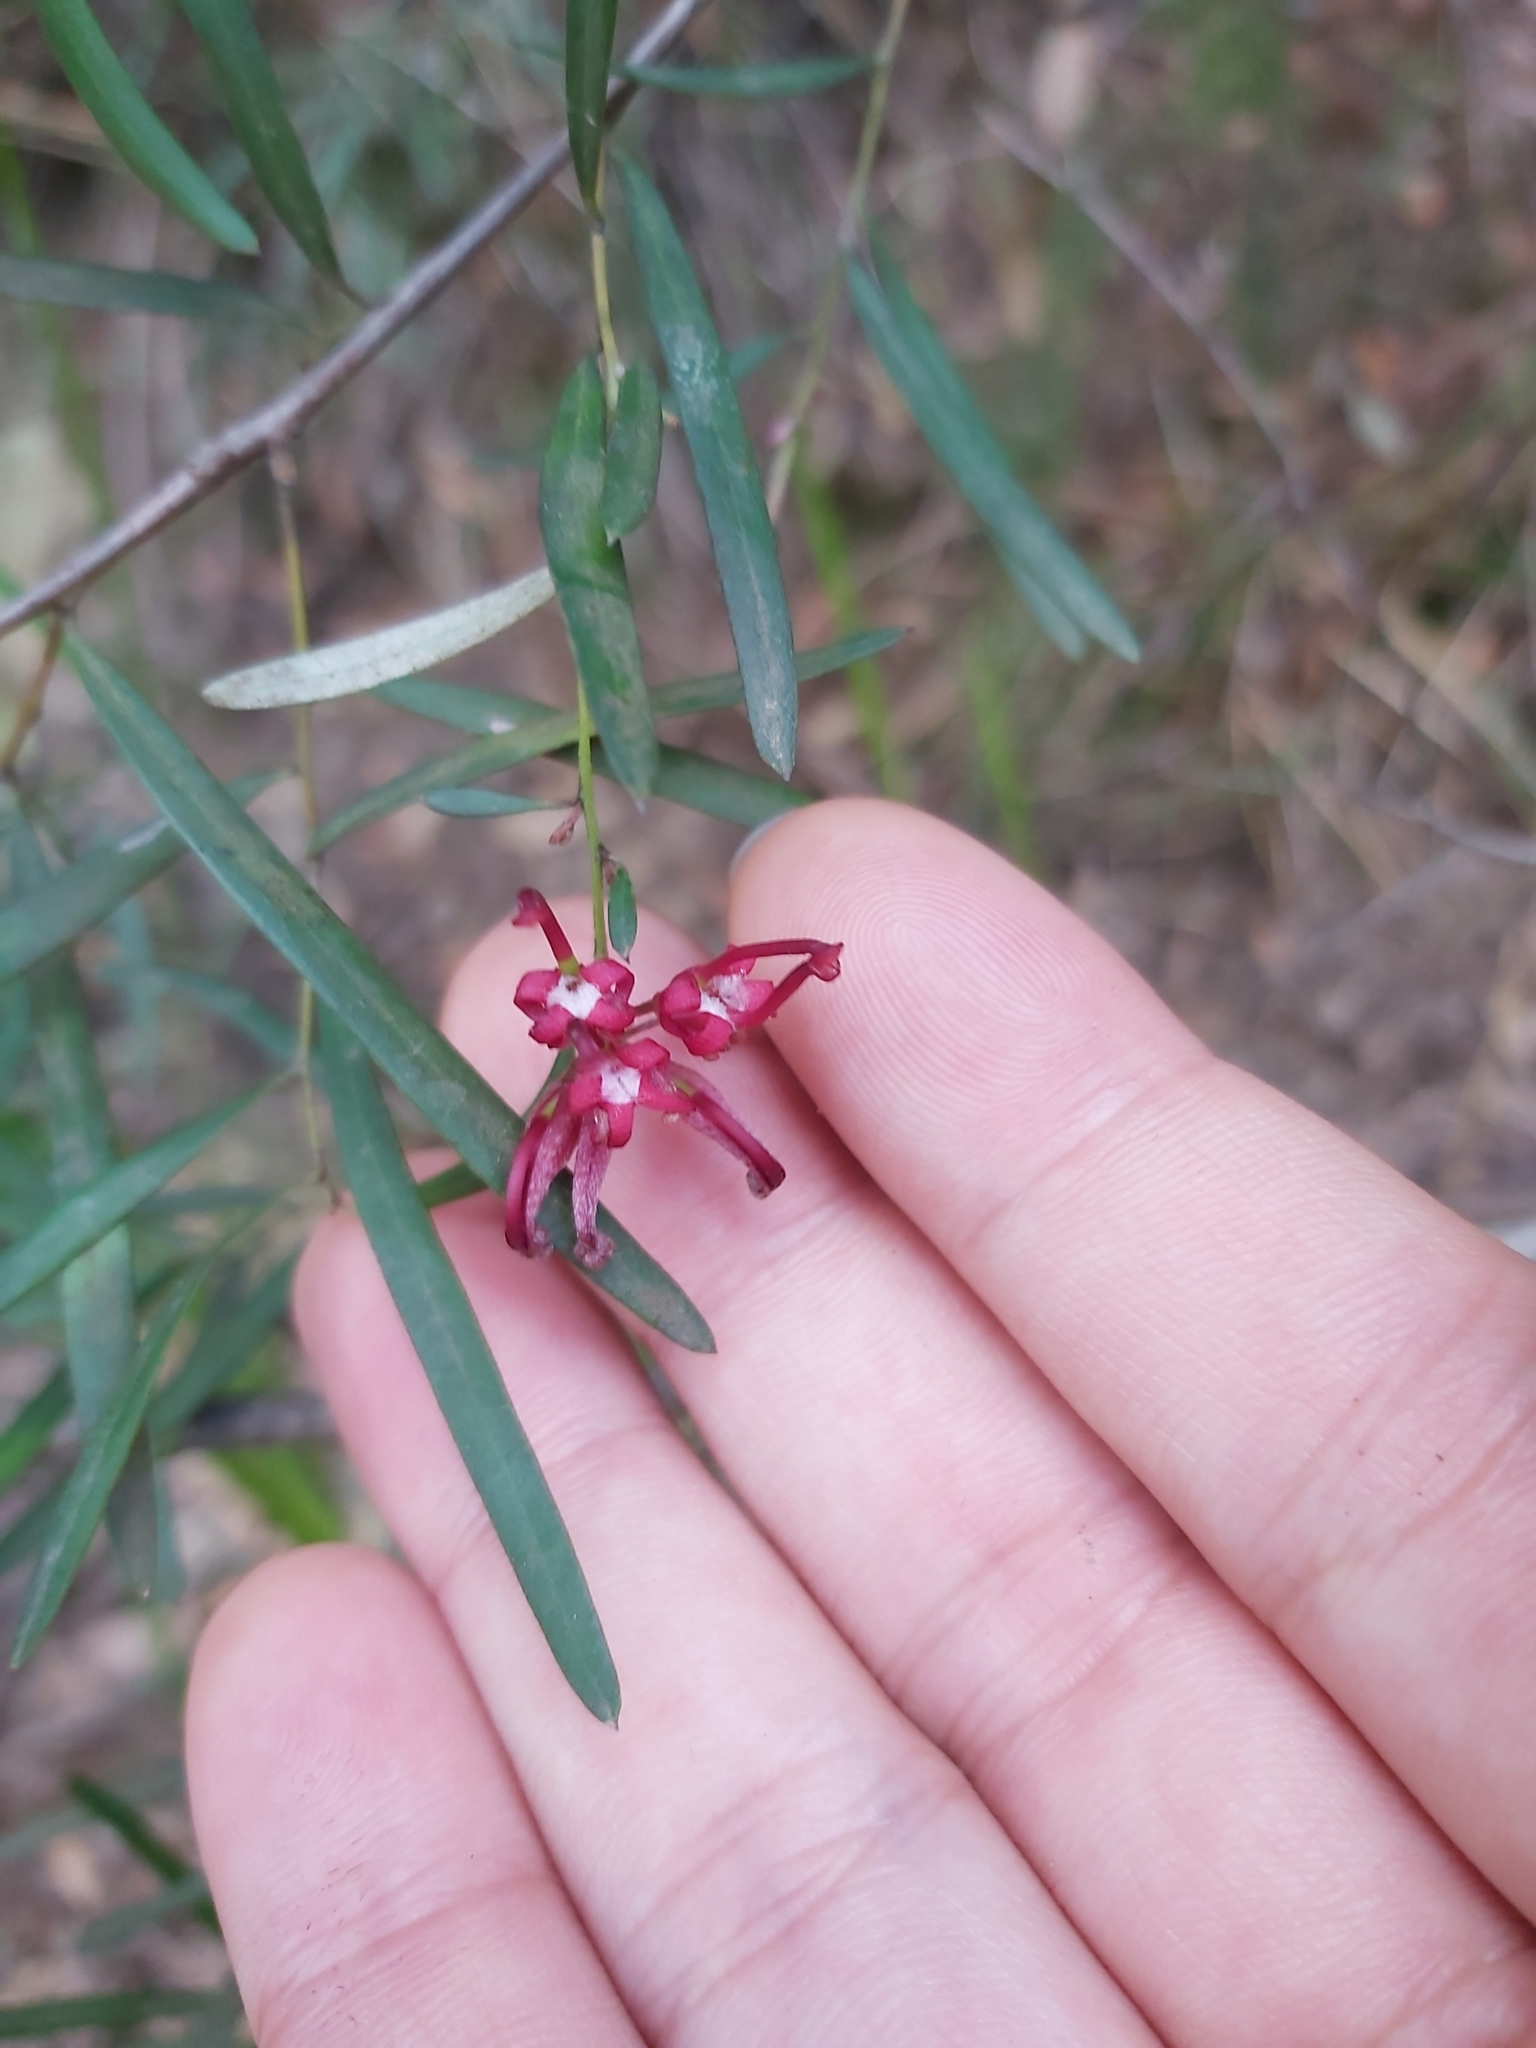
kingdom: Plantae
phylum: Tracheophyta
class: Magnoliopsida
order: Proteales
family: Proteaceae
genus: Grevillea
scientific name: Grevillea diffusa
